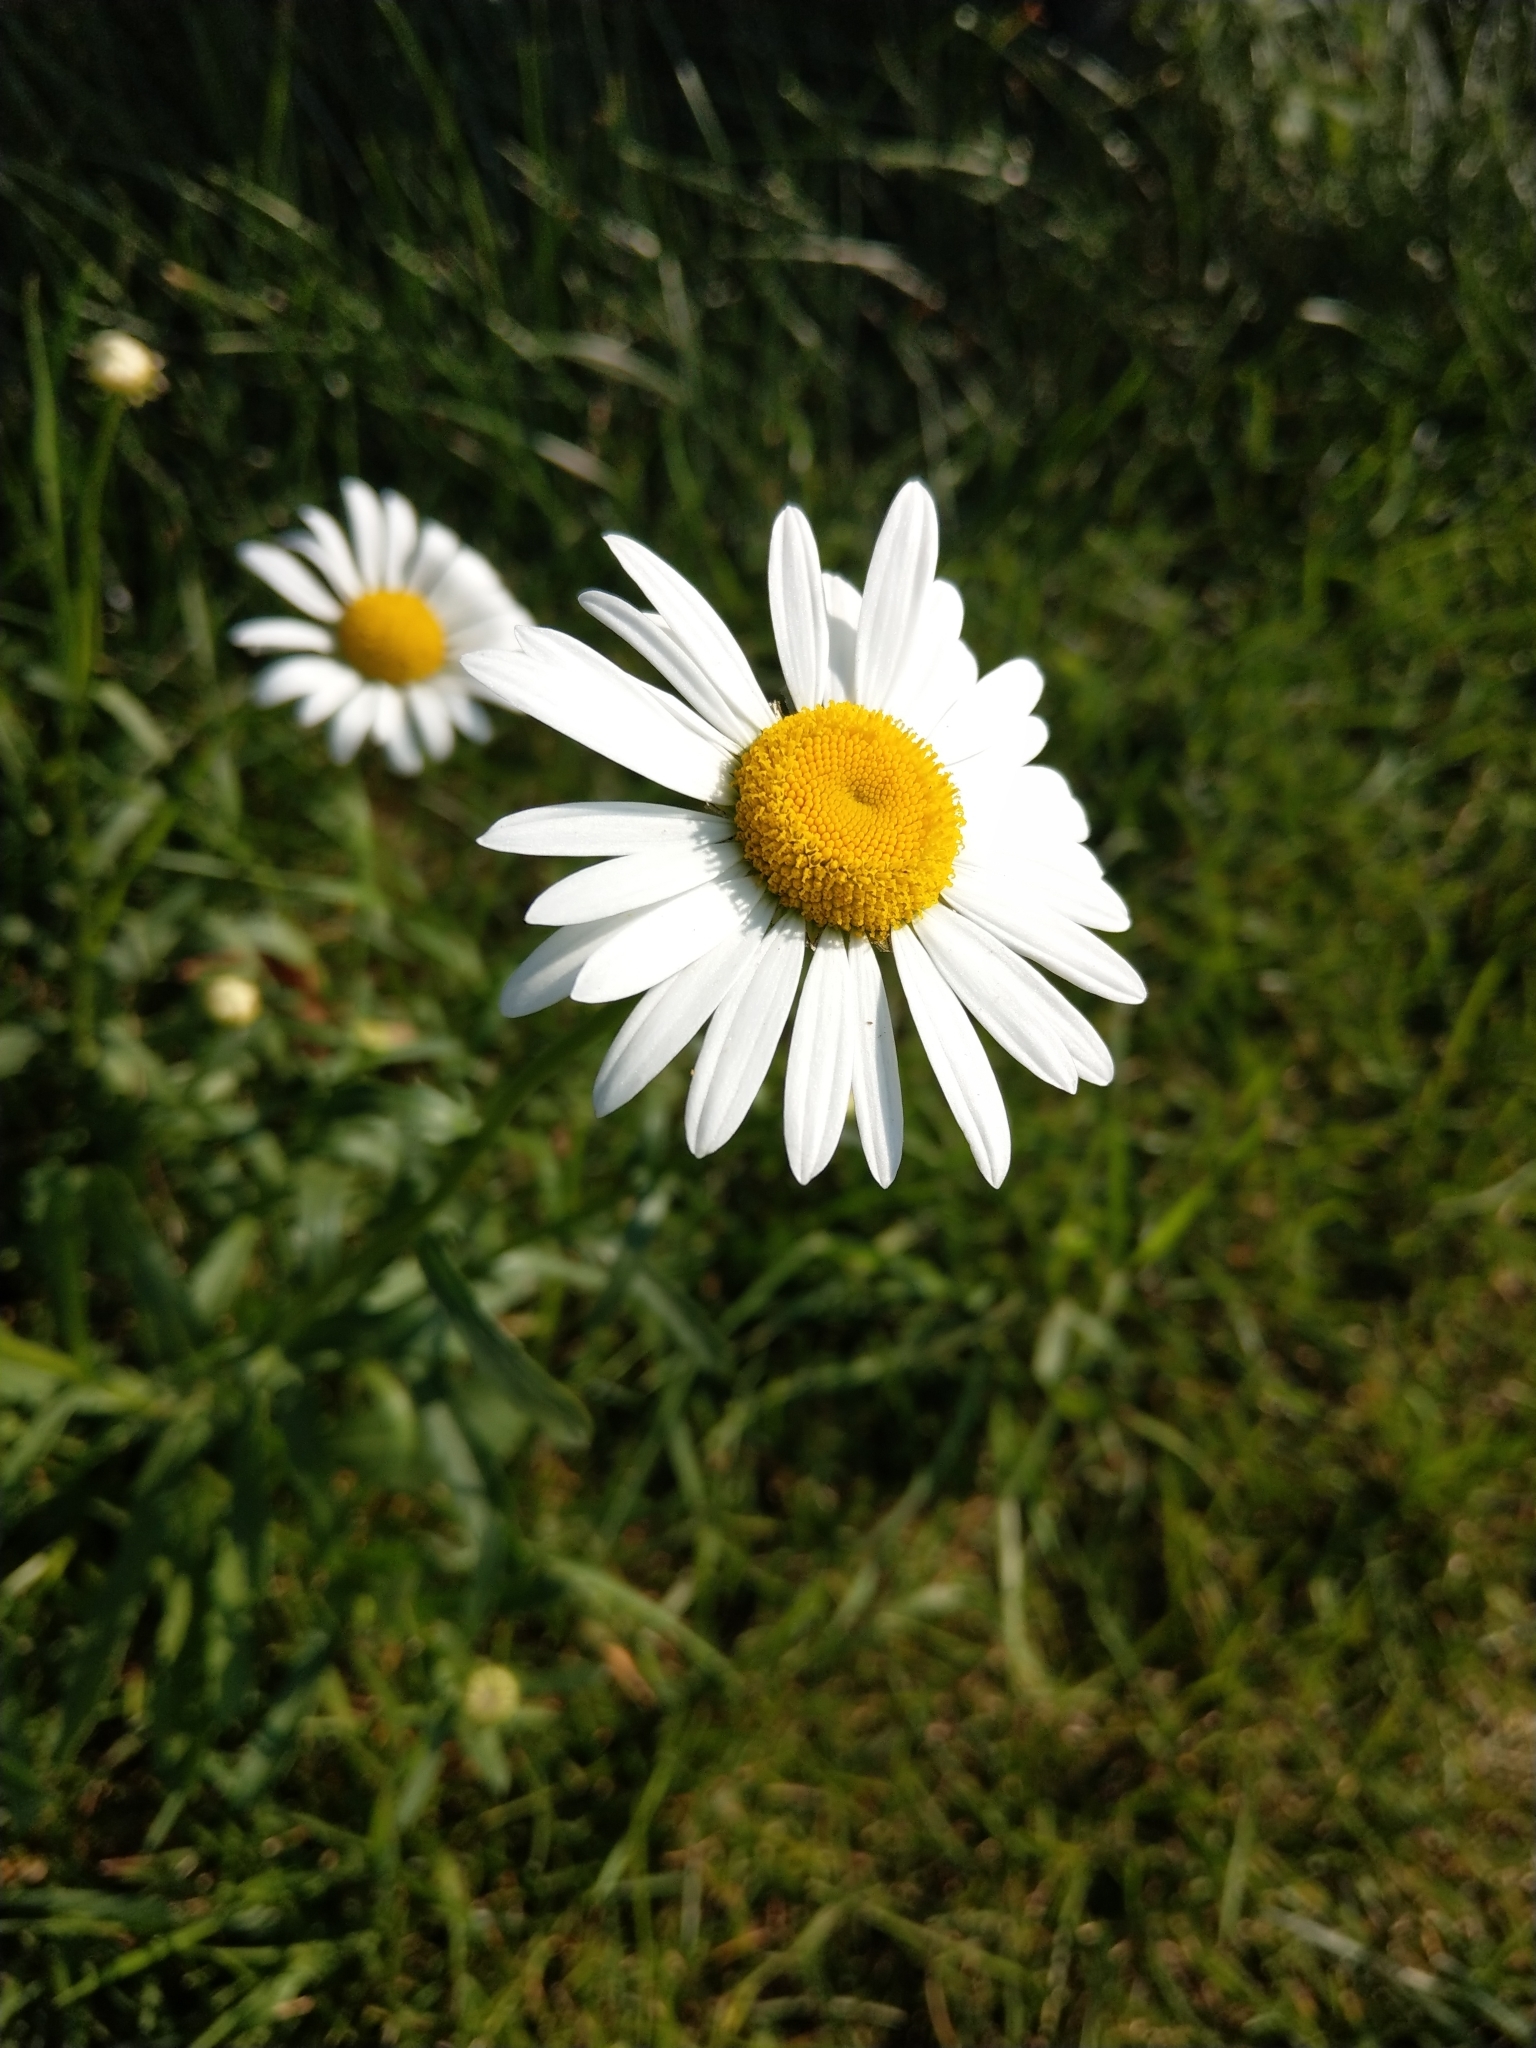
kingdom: Plantae
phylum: Tracheophyta
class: Magnoliopsida
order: Asterales
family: Asteraceae
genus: Leucanthemum
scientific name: Leucanthemum ircutianum
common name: Daisy
